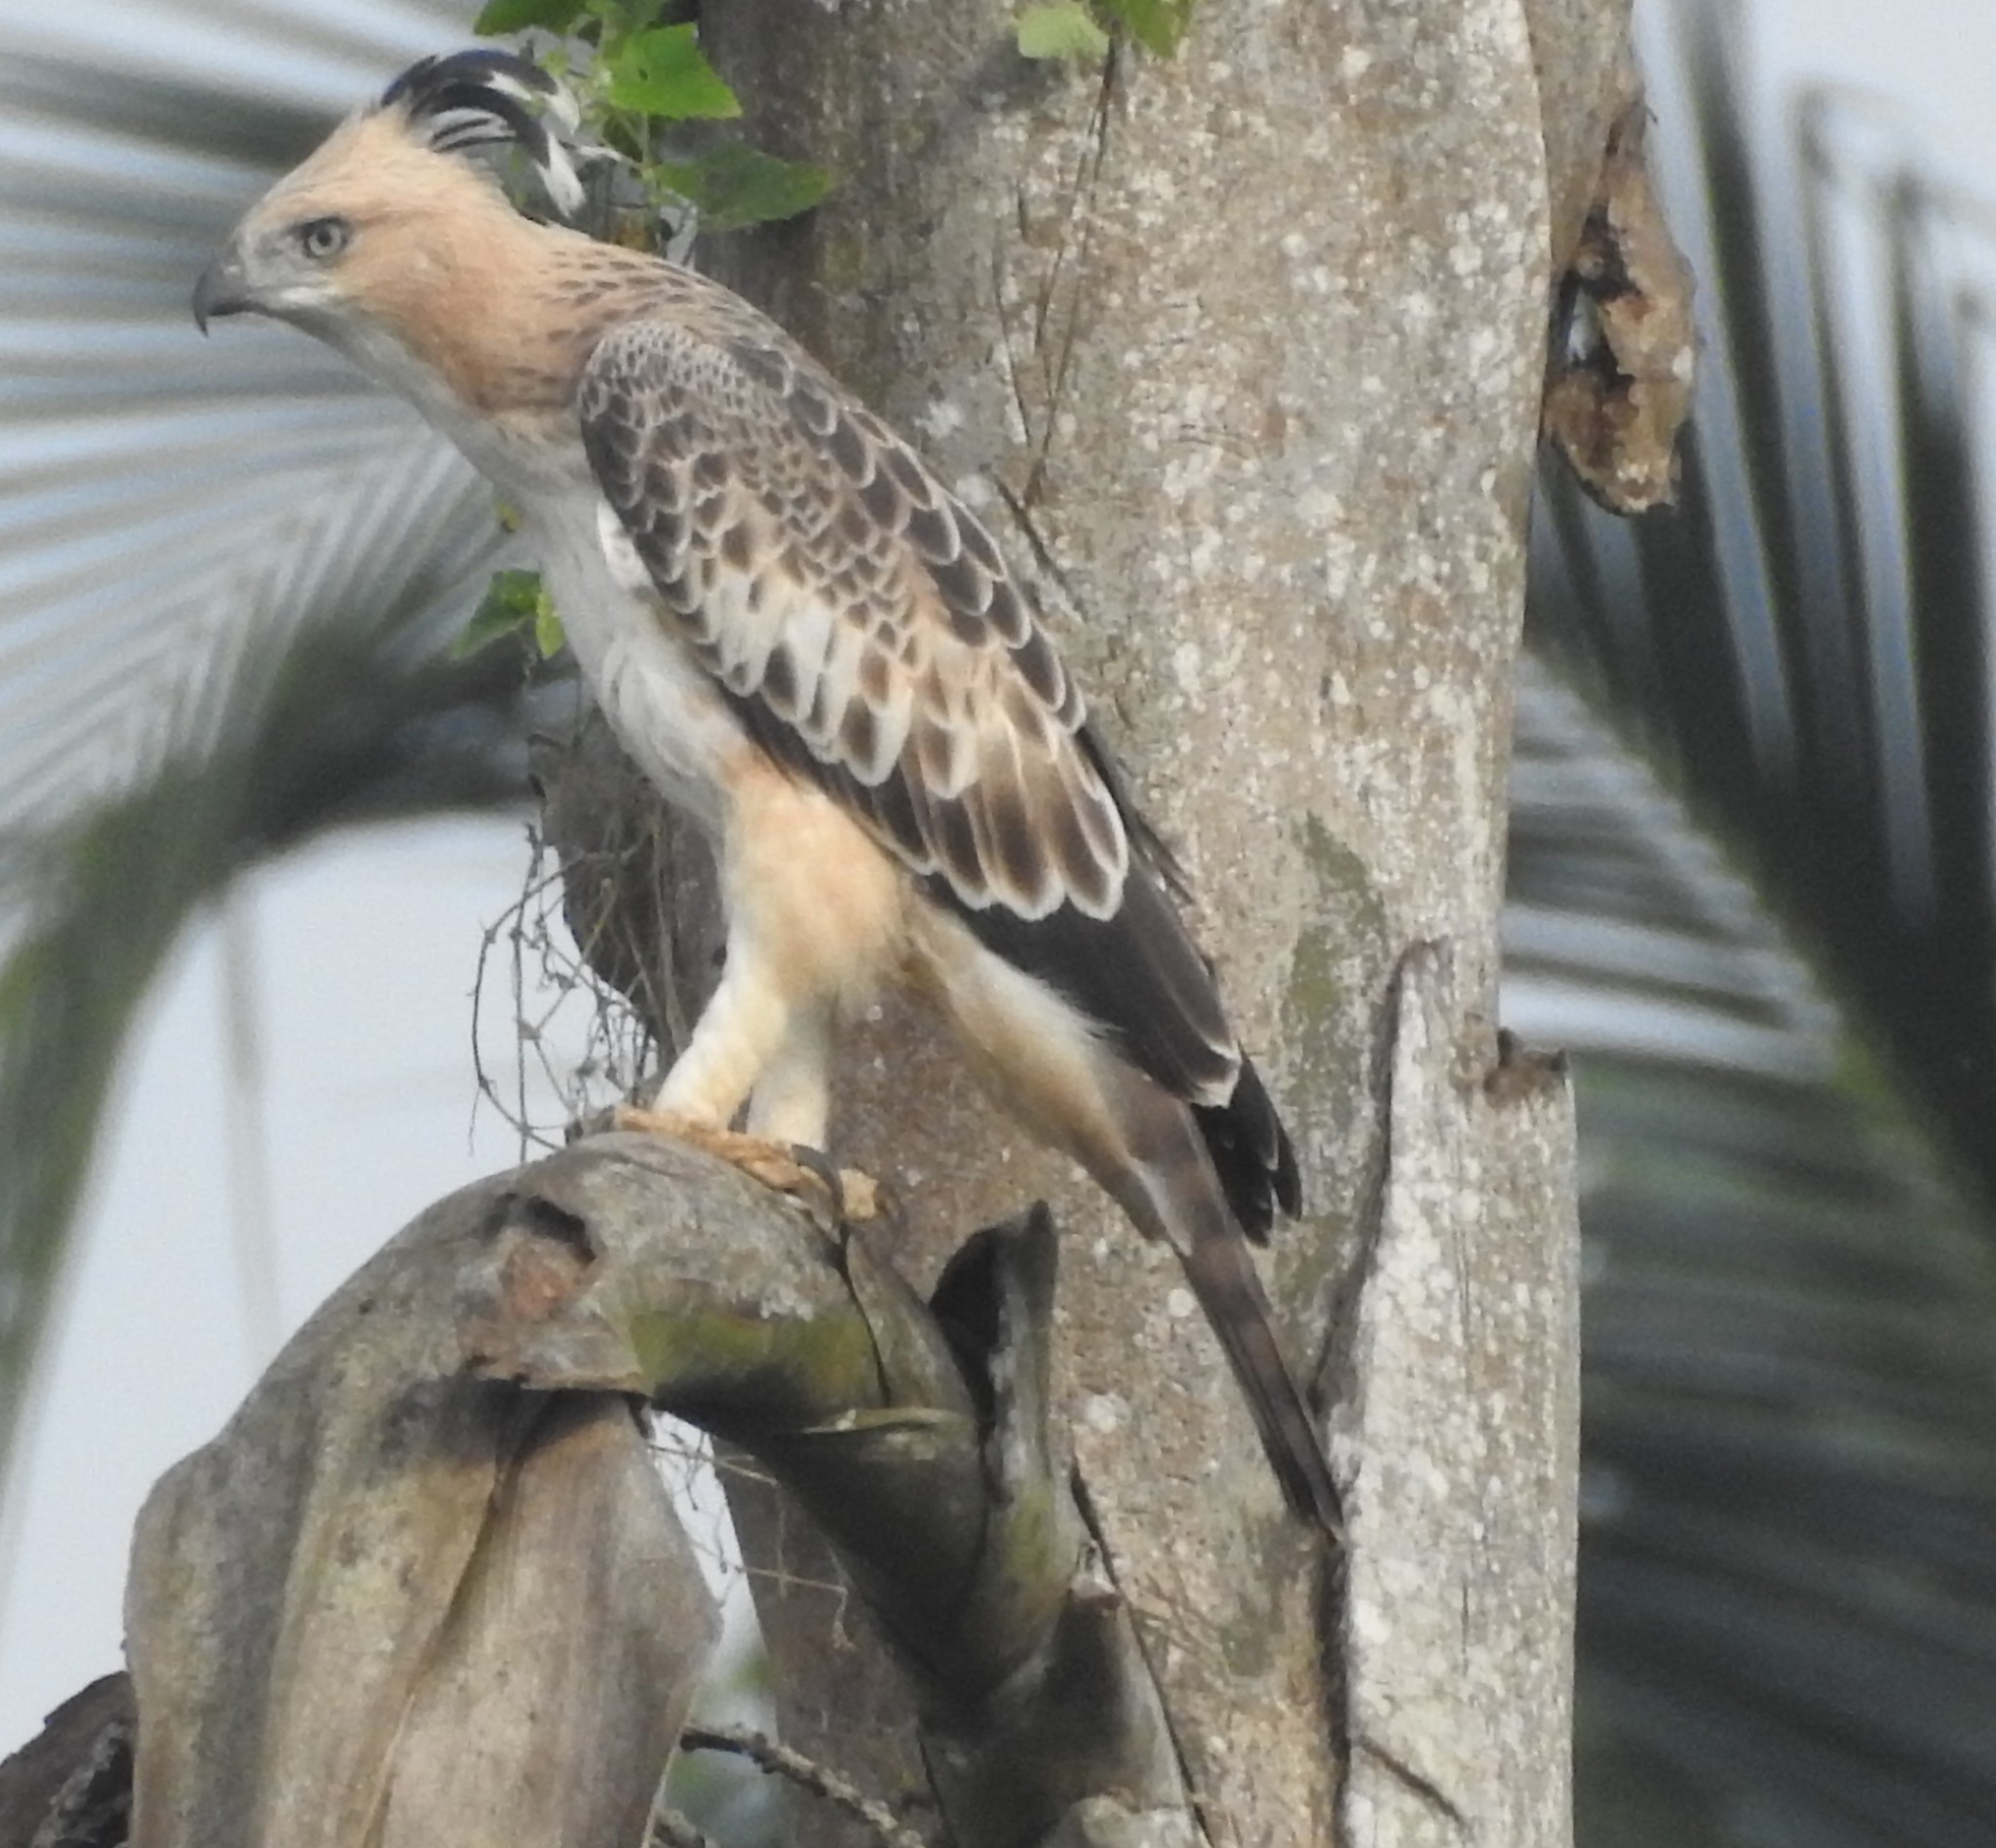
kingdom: Animalia
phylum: Chordata
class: Aves
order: Accipitriformes
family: Accipitridae
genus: Nisaetus
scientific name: Nisaetus cirrhatus
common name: Changeable hawk-eagle
